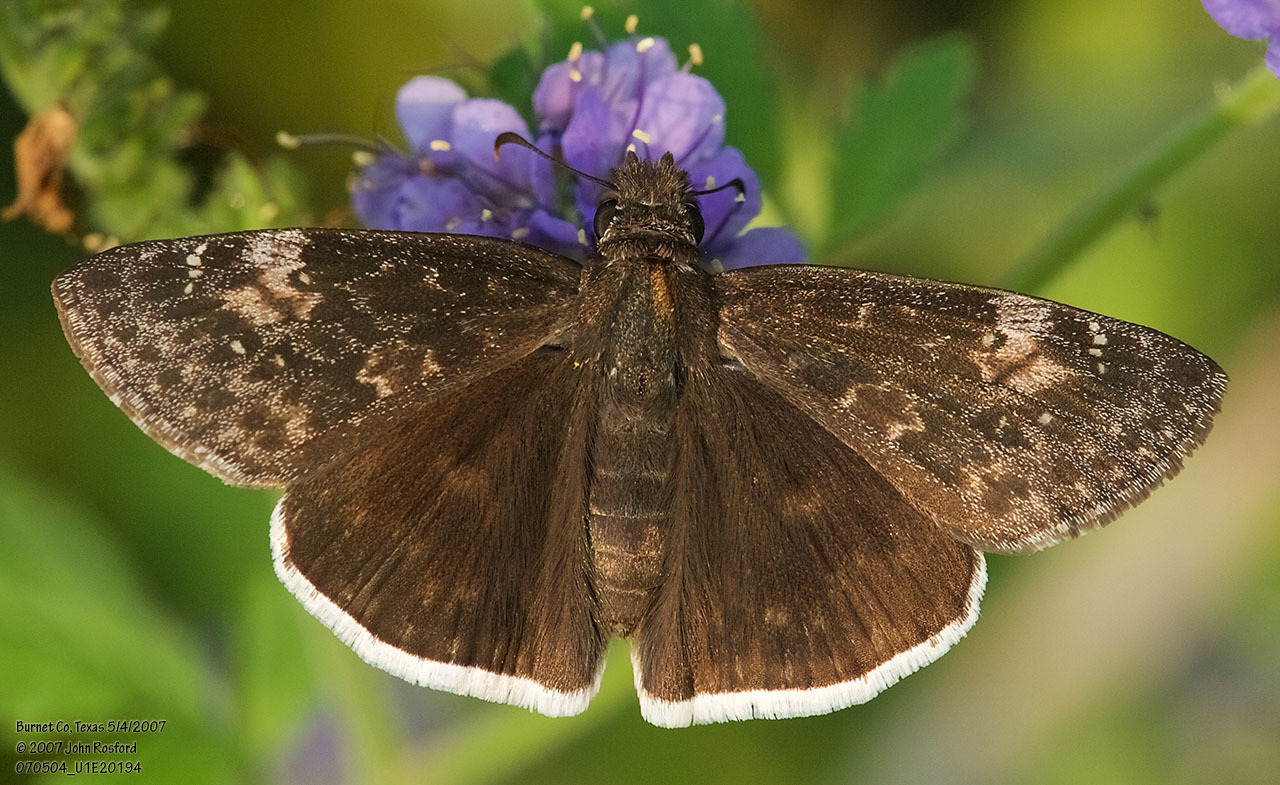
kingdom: Animalia
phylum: Arthropoda
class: Insecta
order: Lepidoptera
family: Hesperiidae
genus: Erynnis
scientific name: Erynnis funeralis
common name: Funereal duskywing
